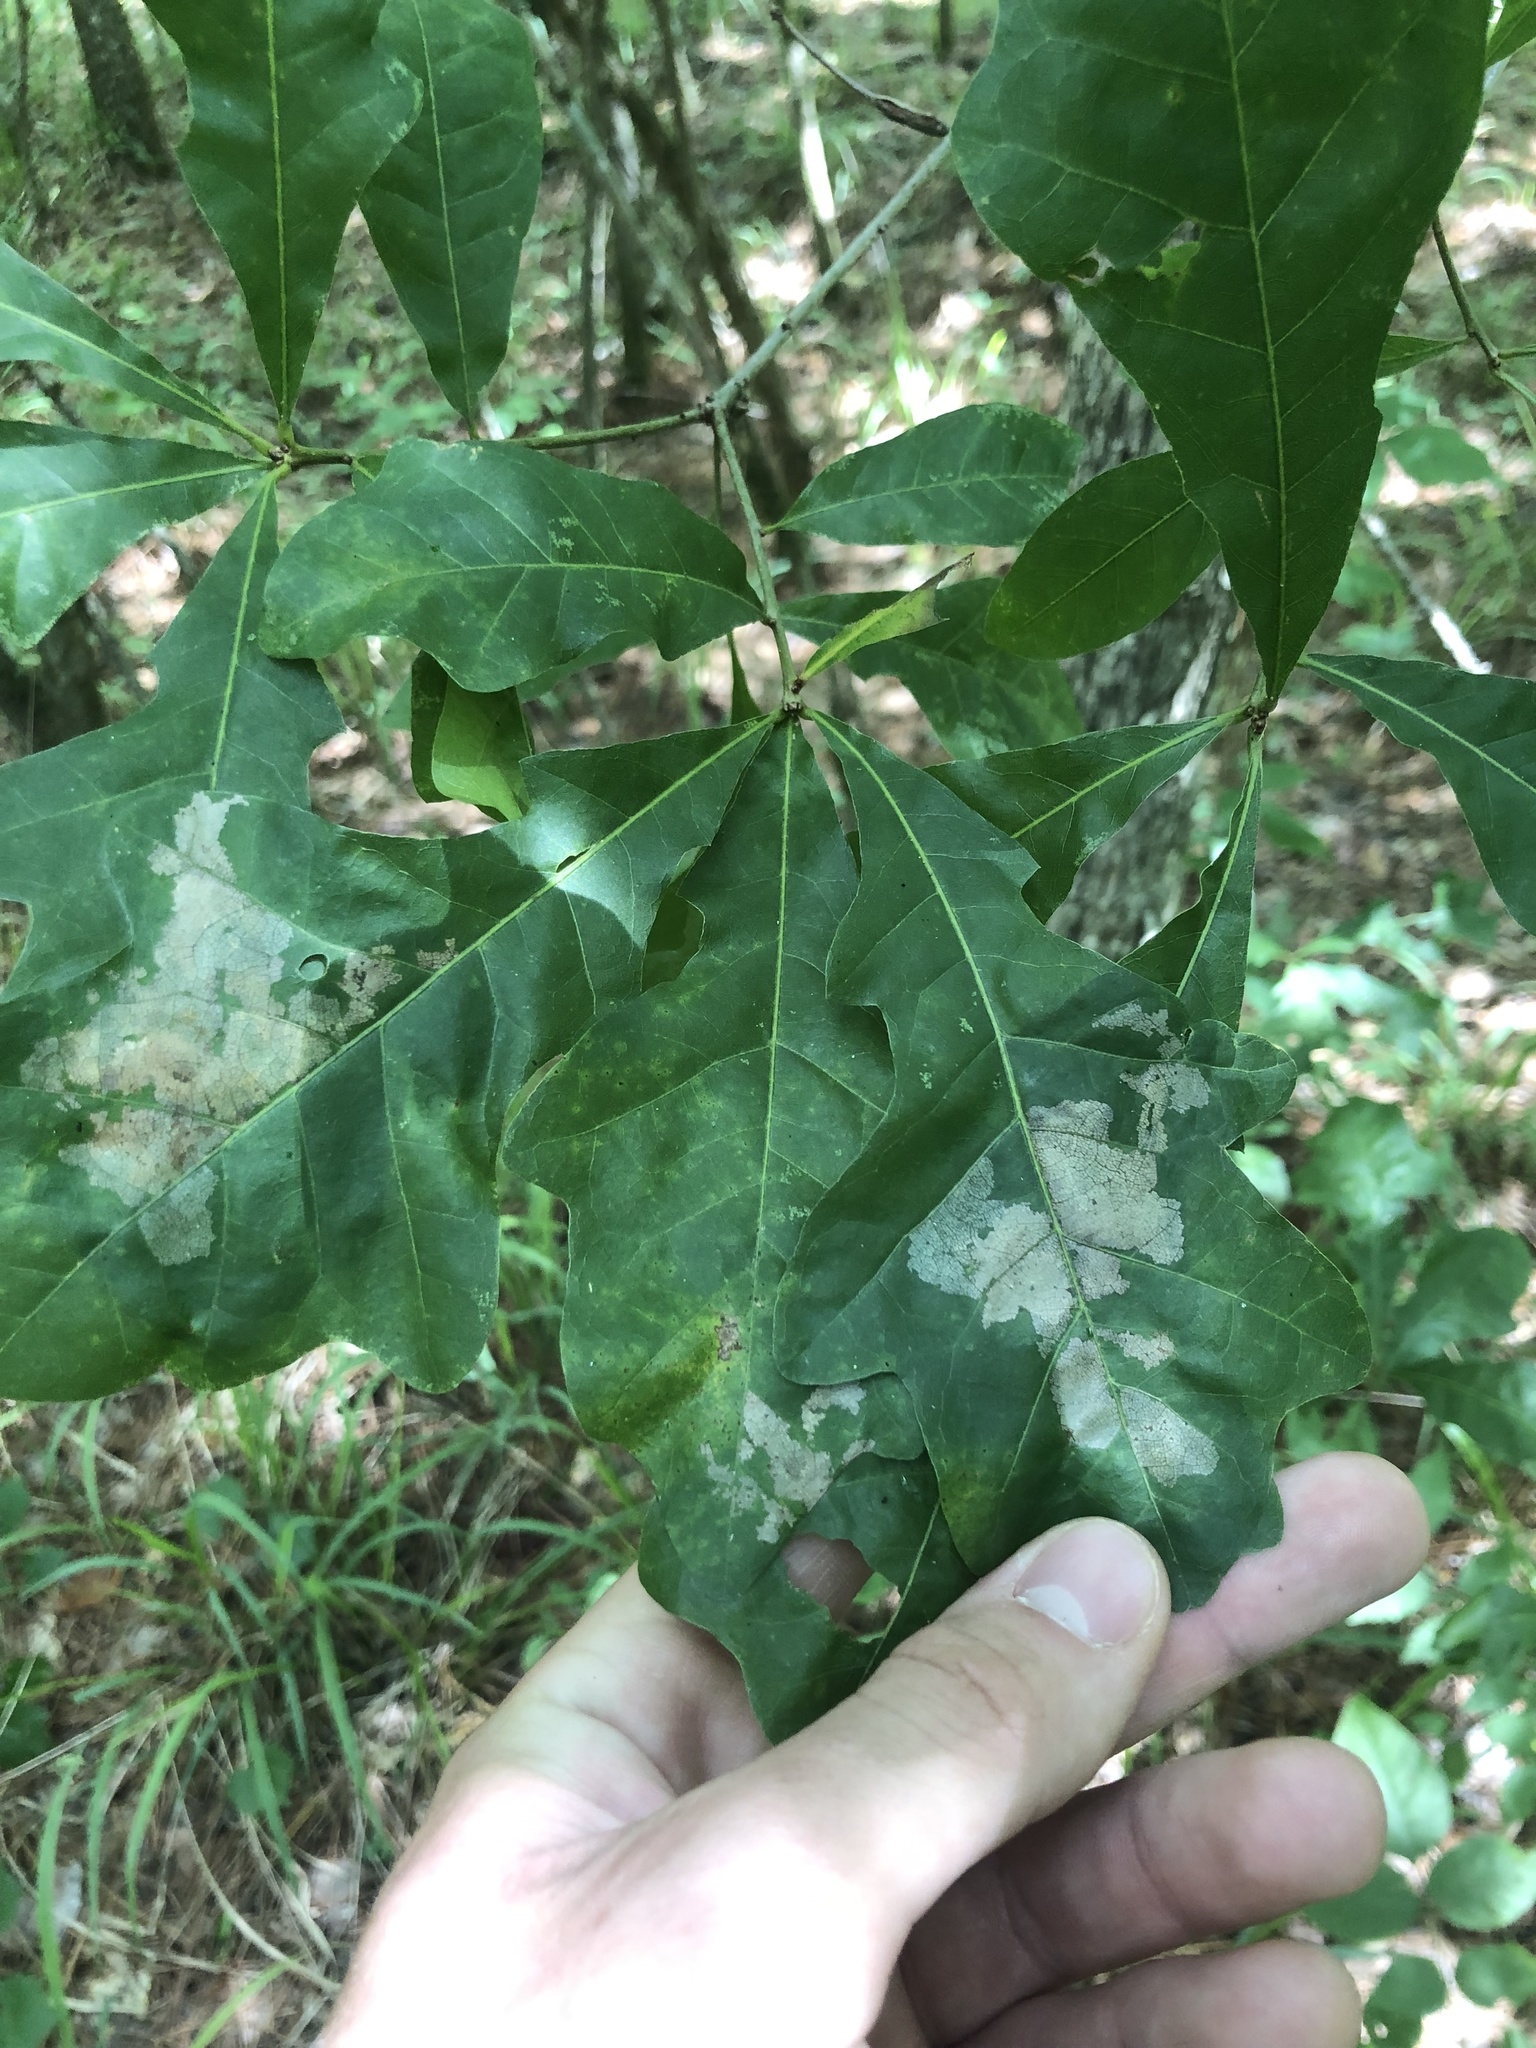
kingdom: Plantae
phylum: Tracheophyta
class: Magnoliopsida
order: Fagales
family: Fagaceae
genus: Quercus
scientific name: Quercus sinuata
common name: Durand oak
